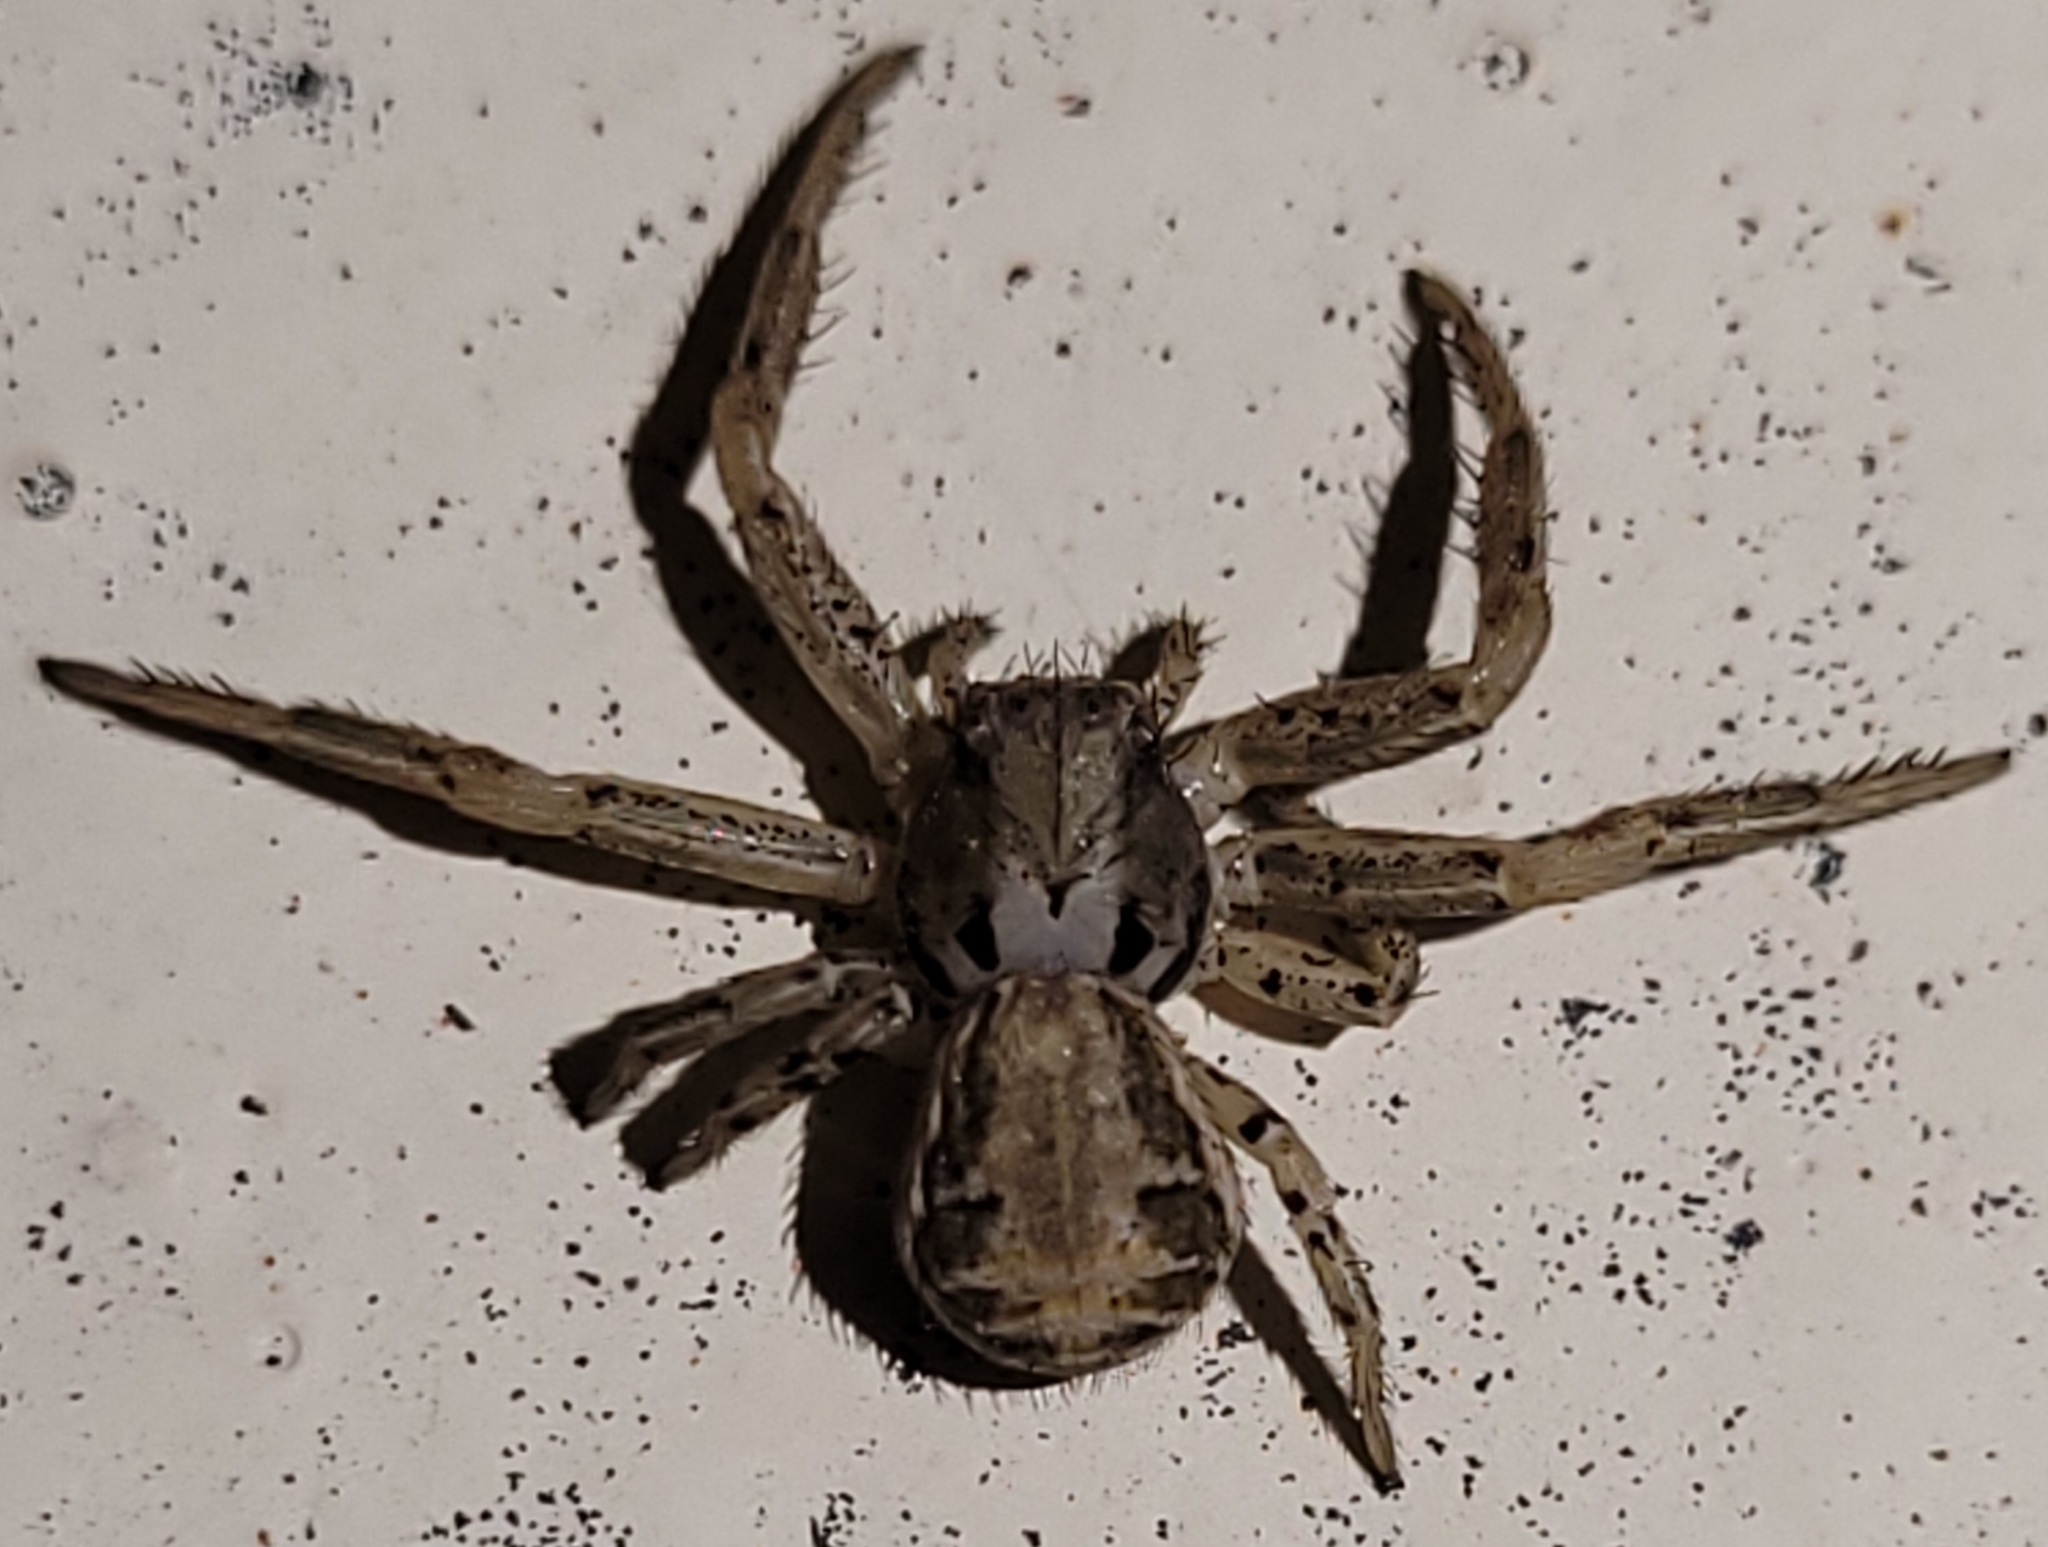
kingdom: Animalia
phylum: Arthropoda
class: Arachnida
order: Araneae
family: Thomisidae
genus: Xysticus
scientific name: Xysticus
